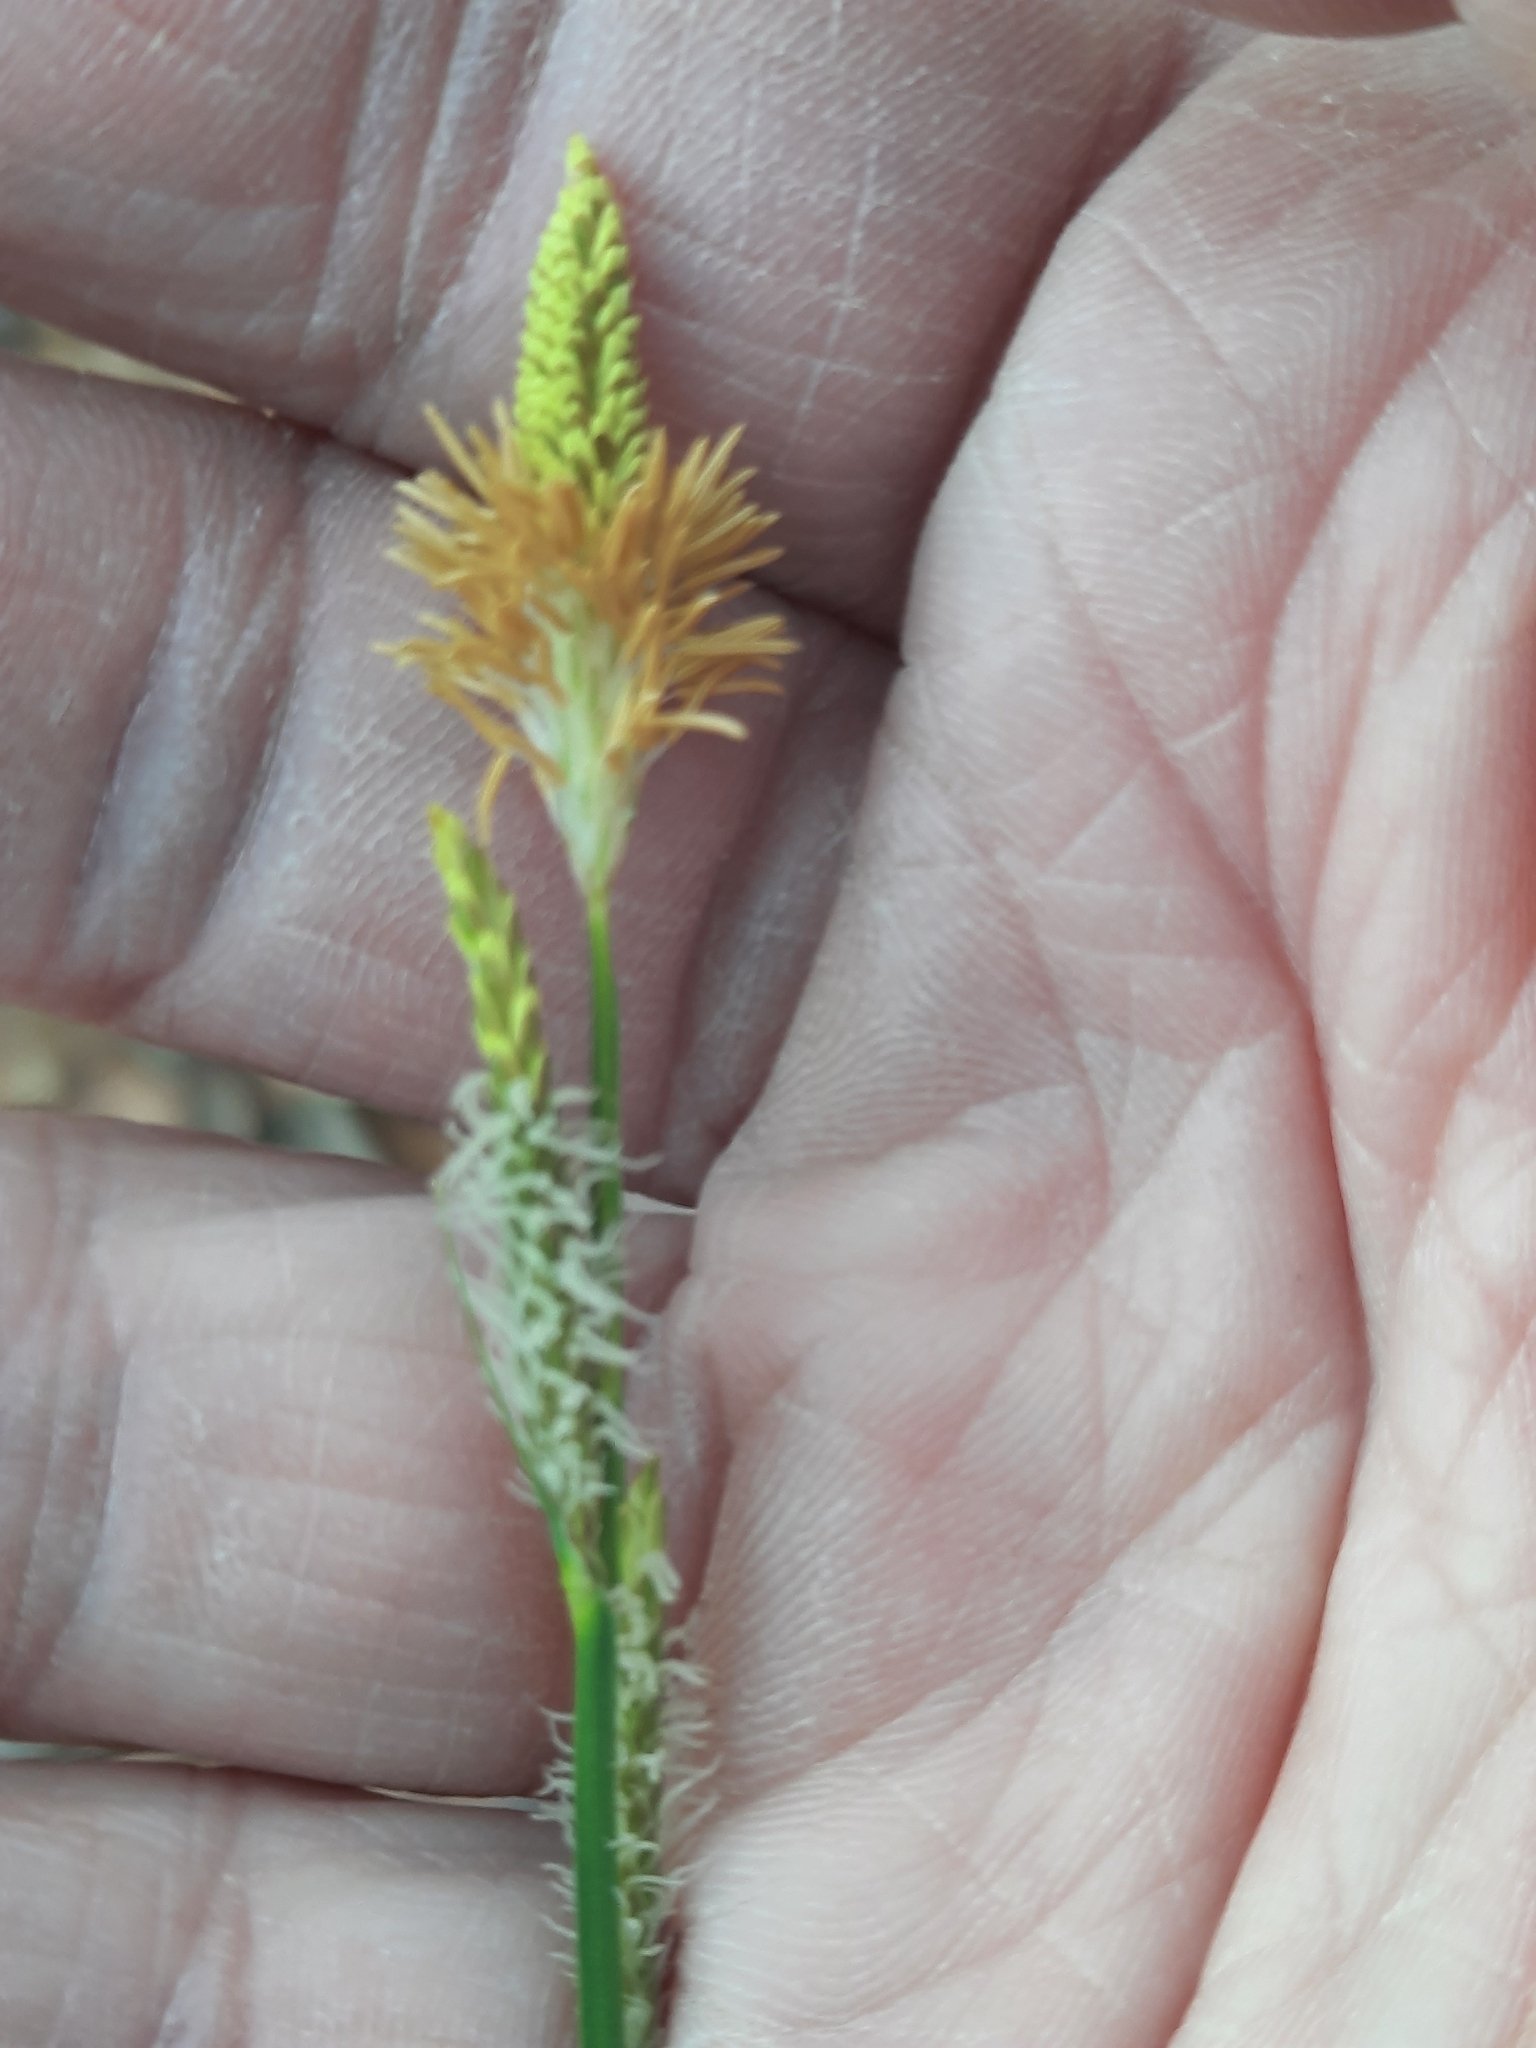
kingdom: Plantae
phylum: Tracheophyta
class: Liliopsida
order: Poales
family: Cyperaceae
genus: Carex
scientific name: Carex stricta
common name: Hummock sedge
